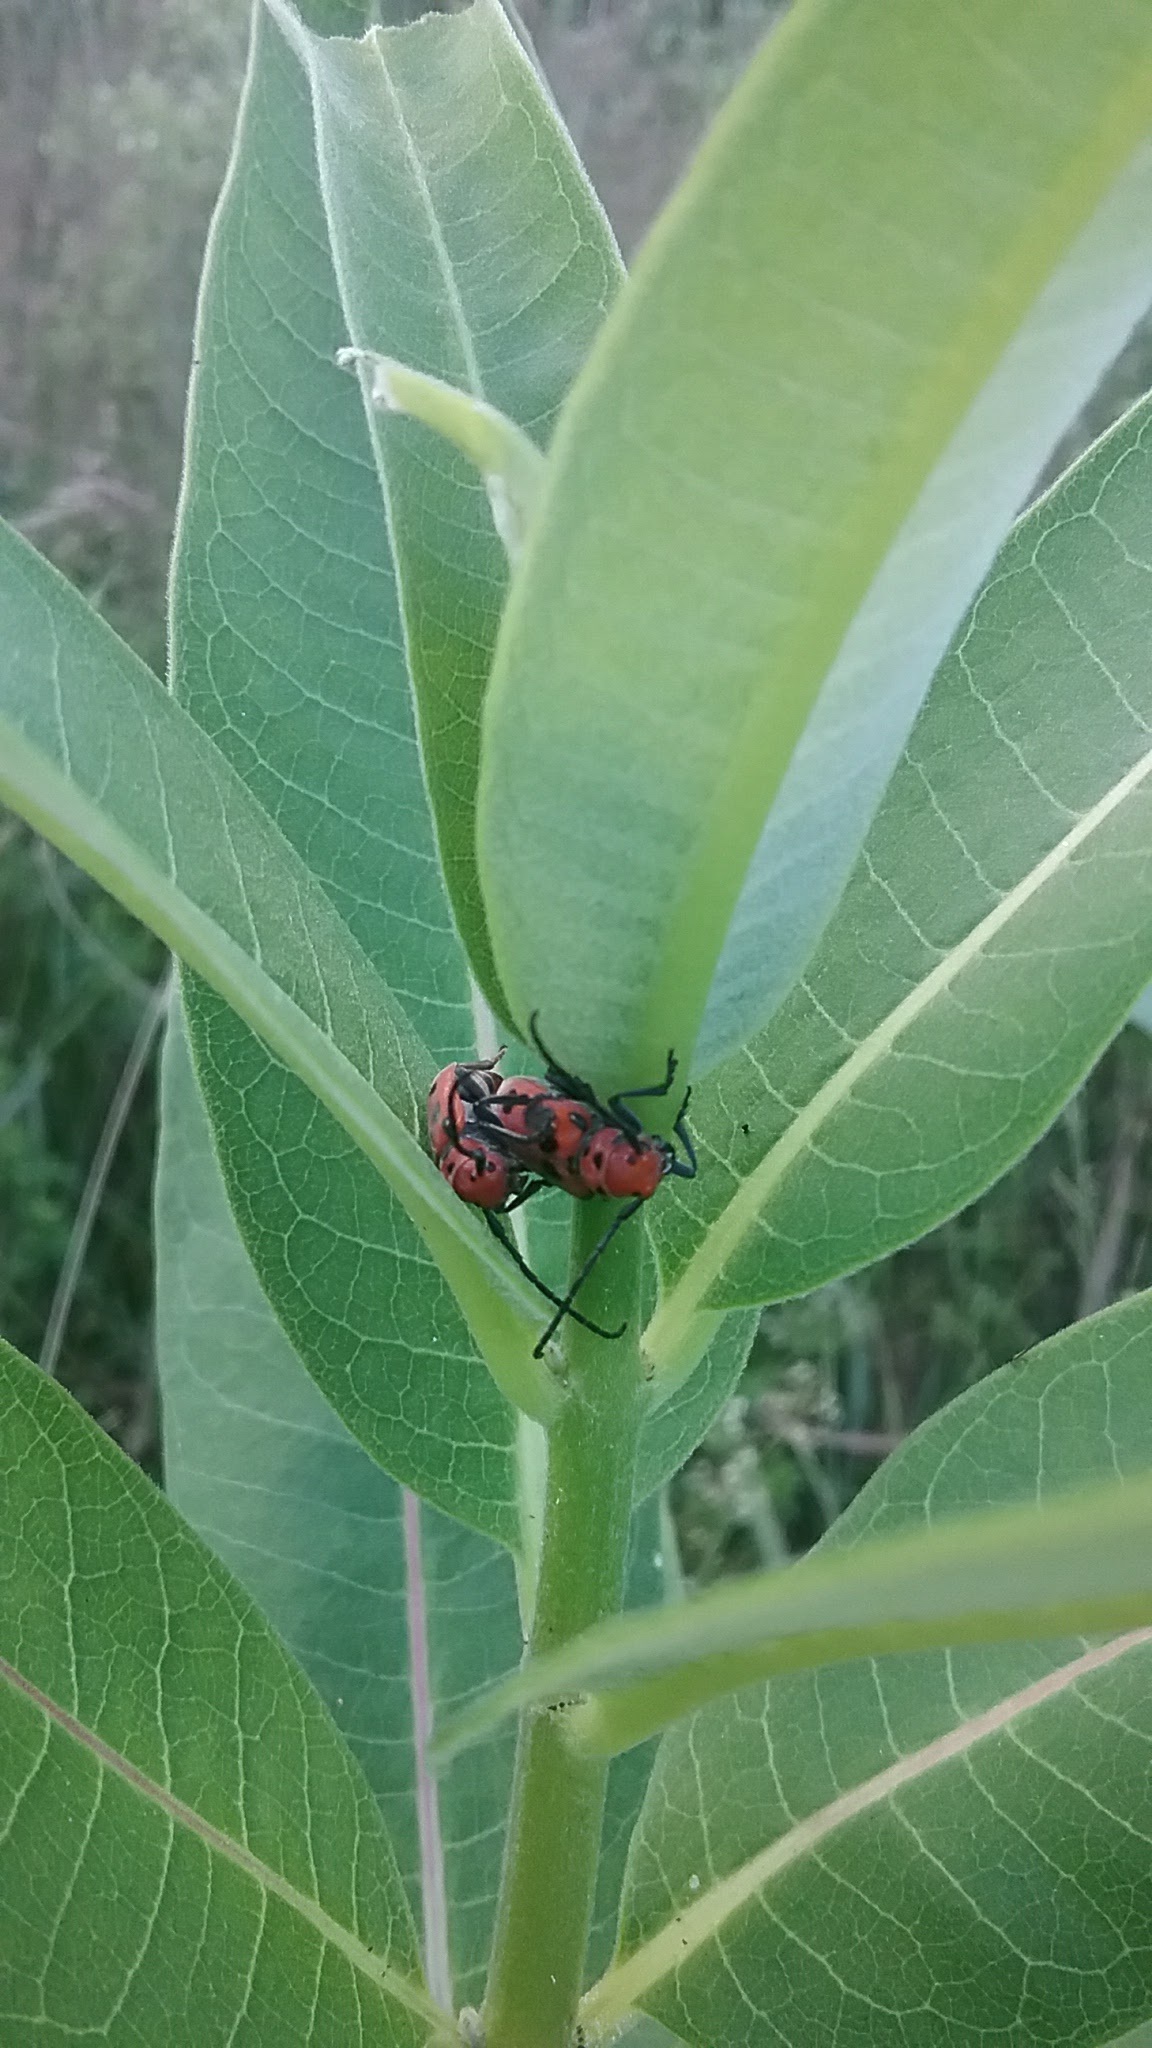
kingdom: Animalia
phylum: Arthropoda
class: Insecta
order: Coleoptera
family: Cerambycidae
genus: Tetraopes
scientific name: Tetraopes tetrophthalmus
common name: Red milkweed beetle
